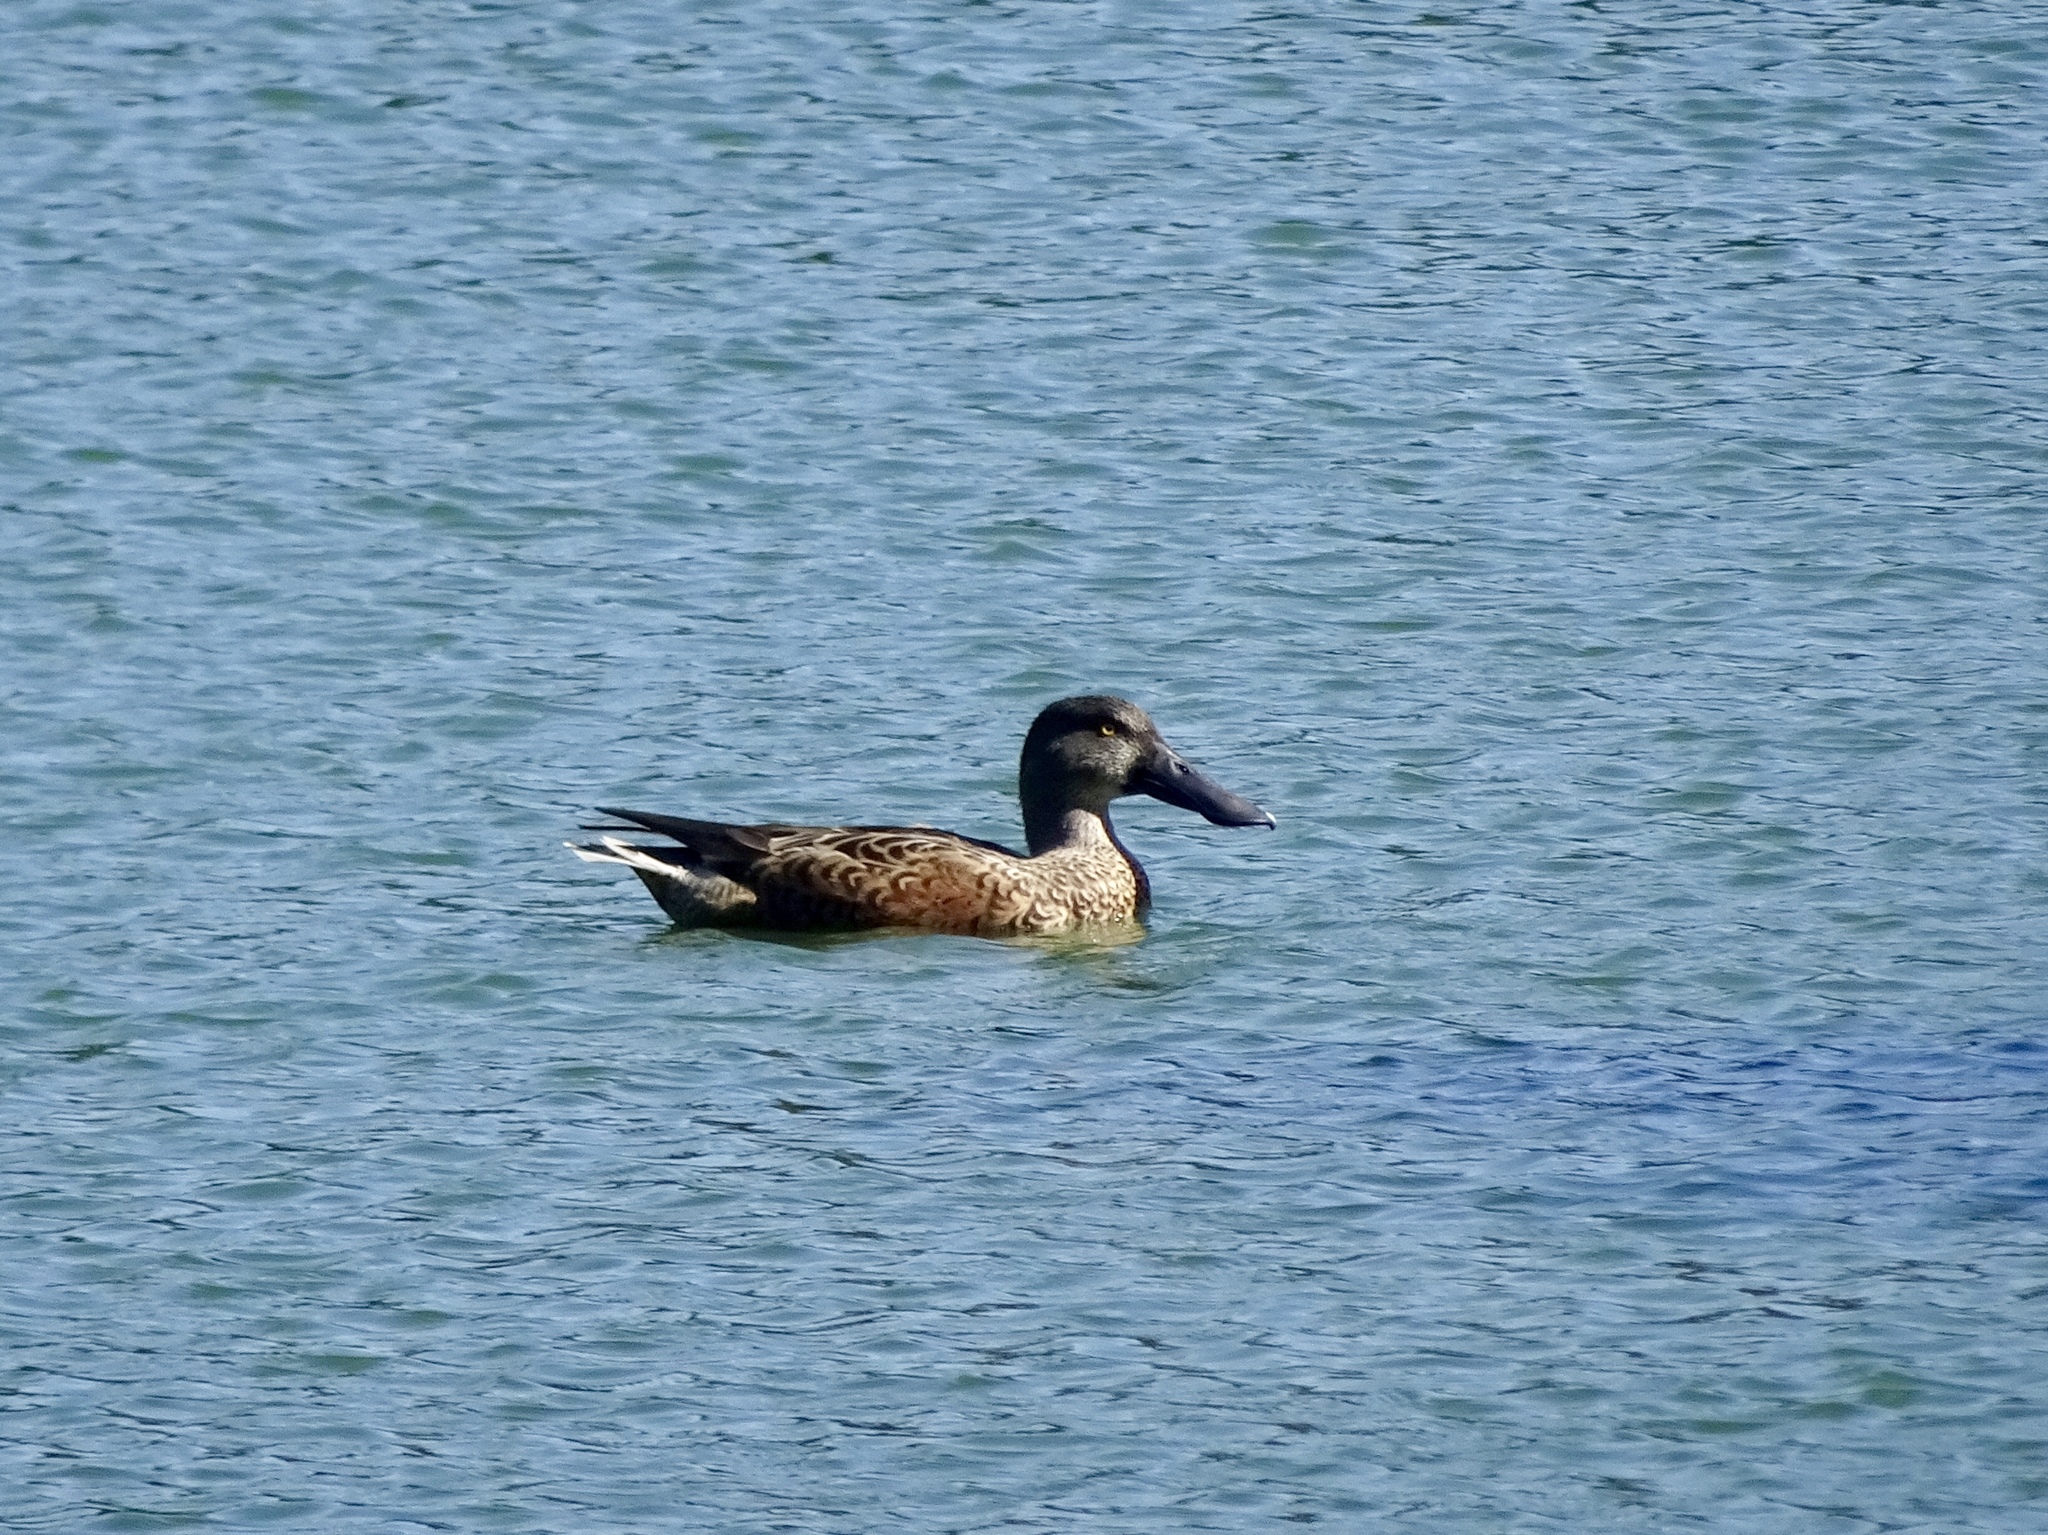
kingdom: Animalia
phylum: Chordata
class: Aves
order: Anseriformes
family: Anatidae
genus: Spatula
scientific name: Spatula clypeata
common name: Northern shoveler
